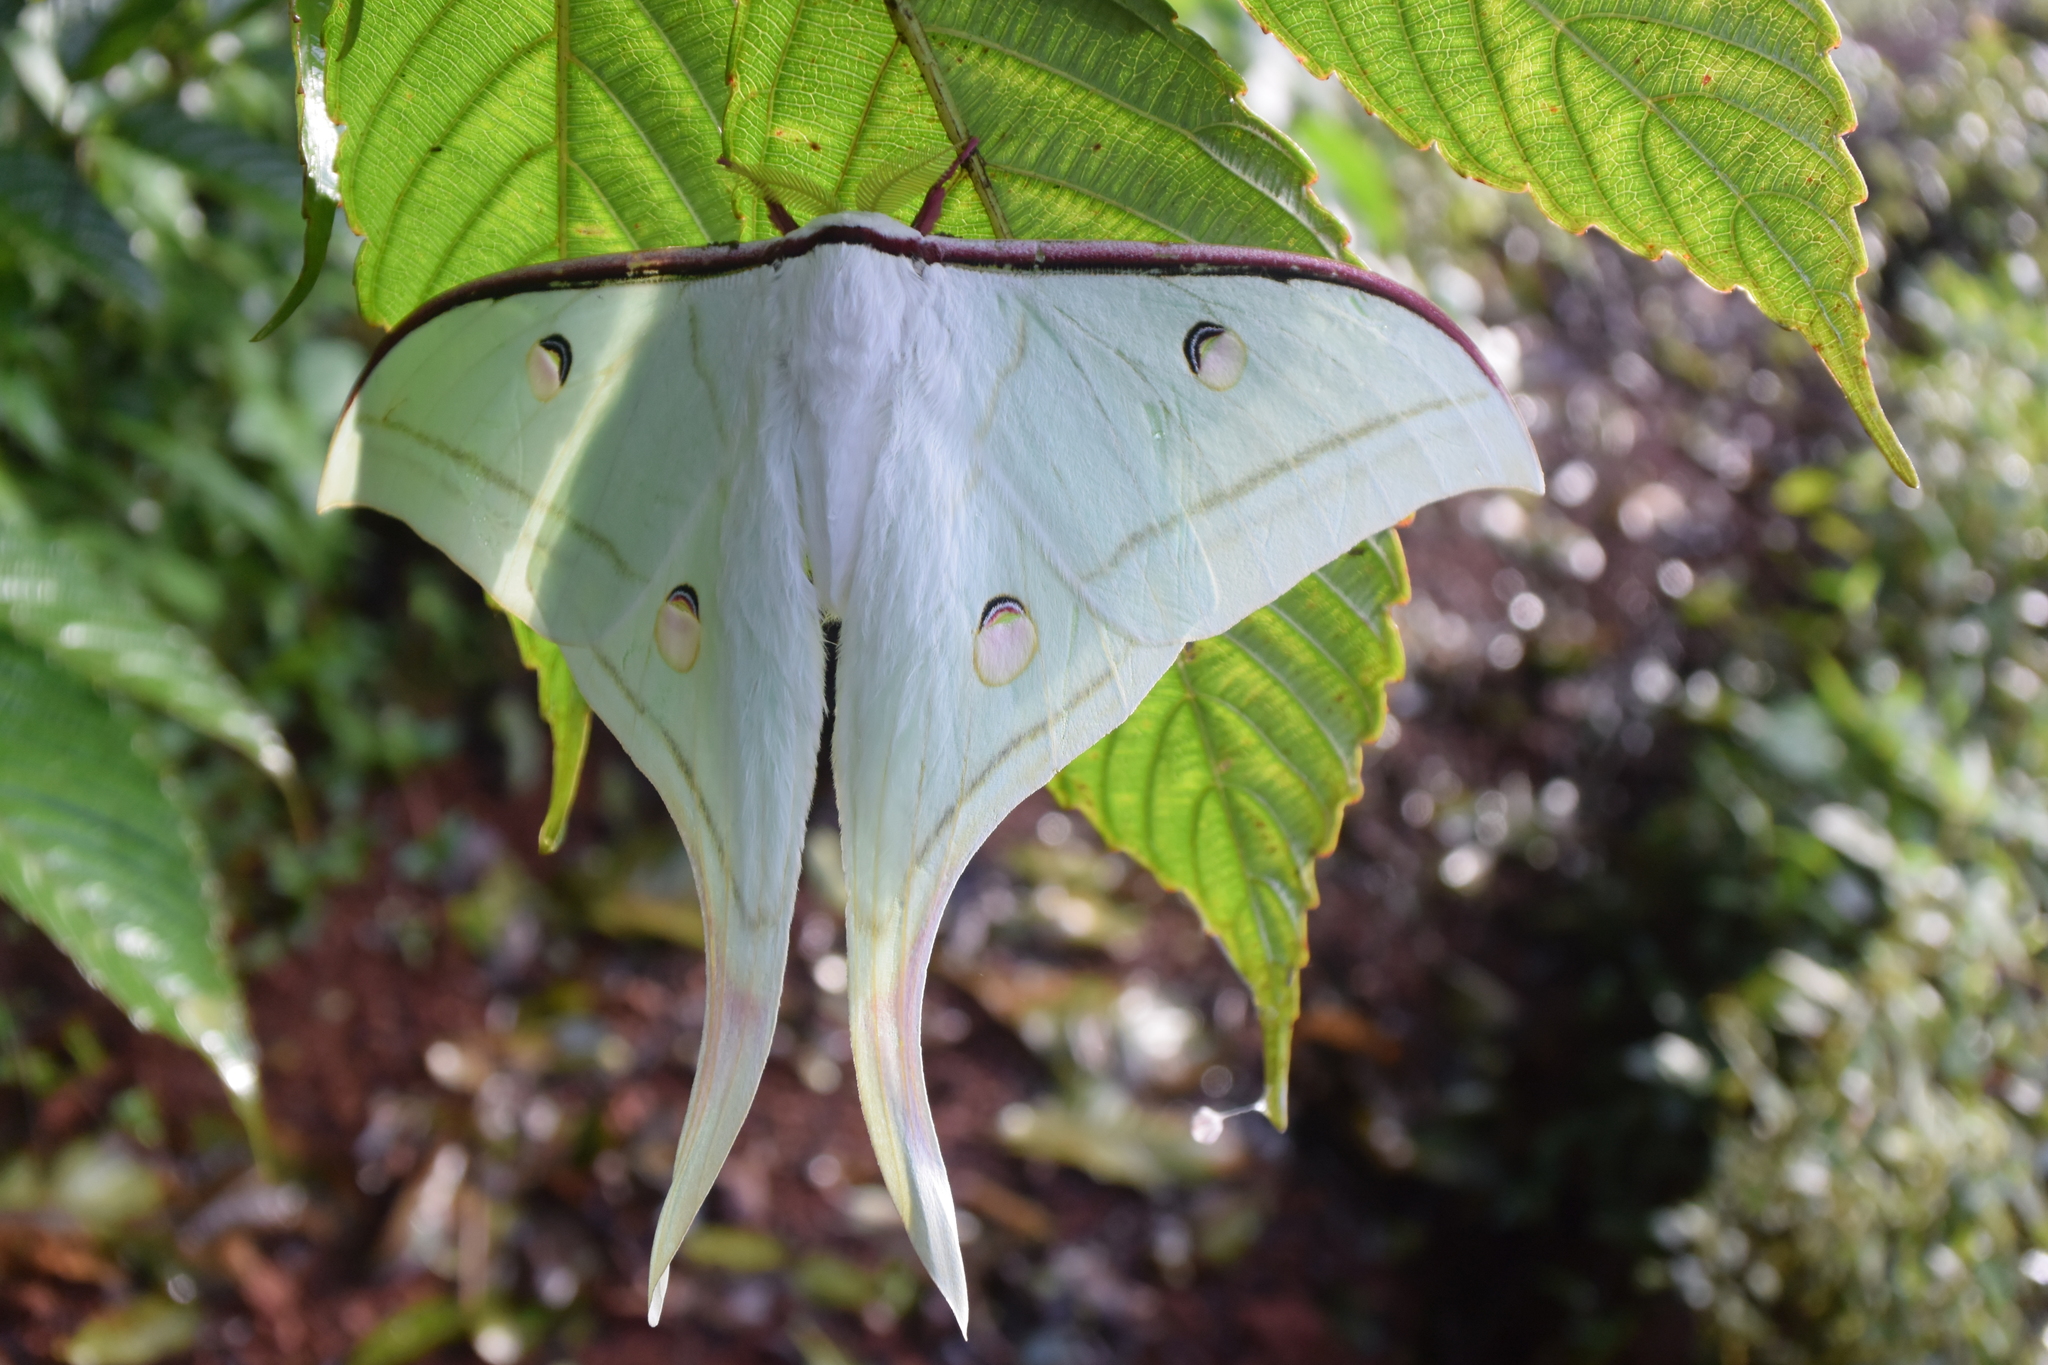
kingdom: Animalia
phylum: Arthropoda
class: Insecta
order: Lepidoptera
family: Saturniidae
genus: Actias
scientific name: Actias selene
